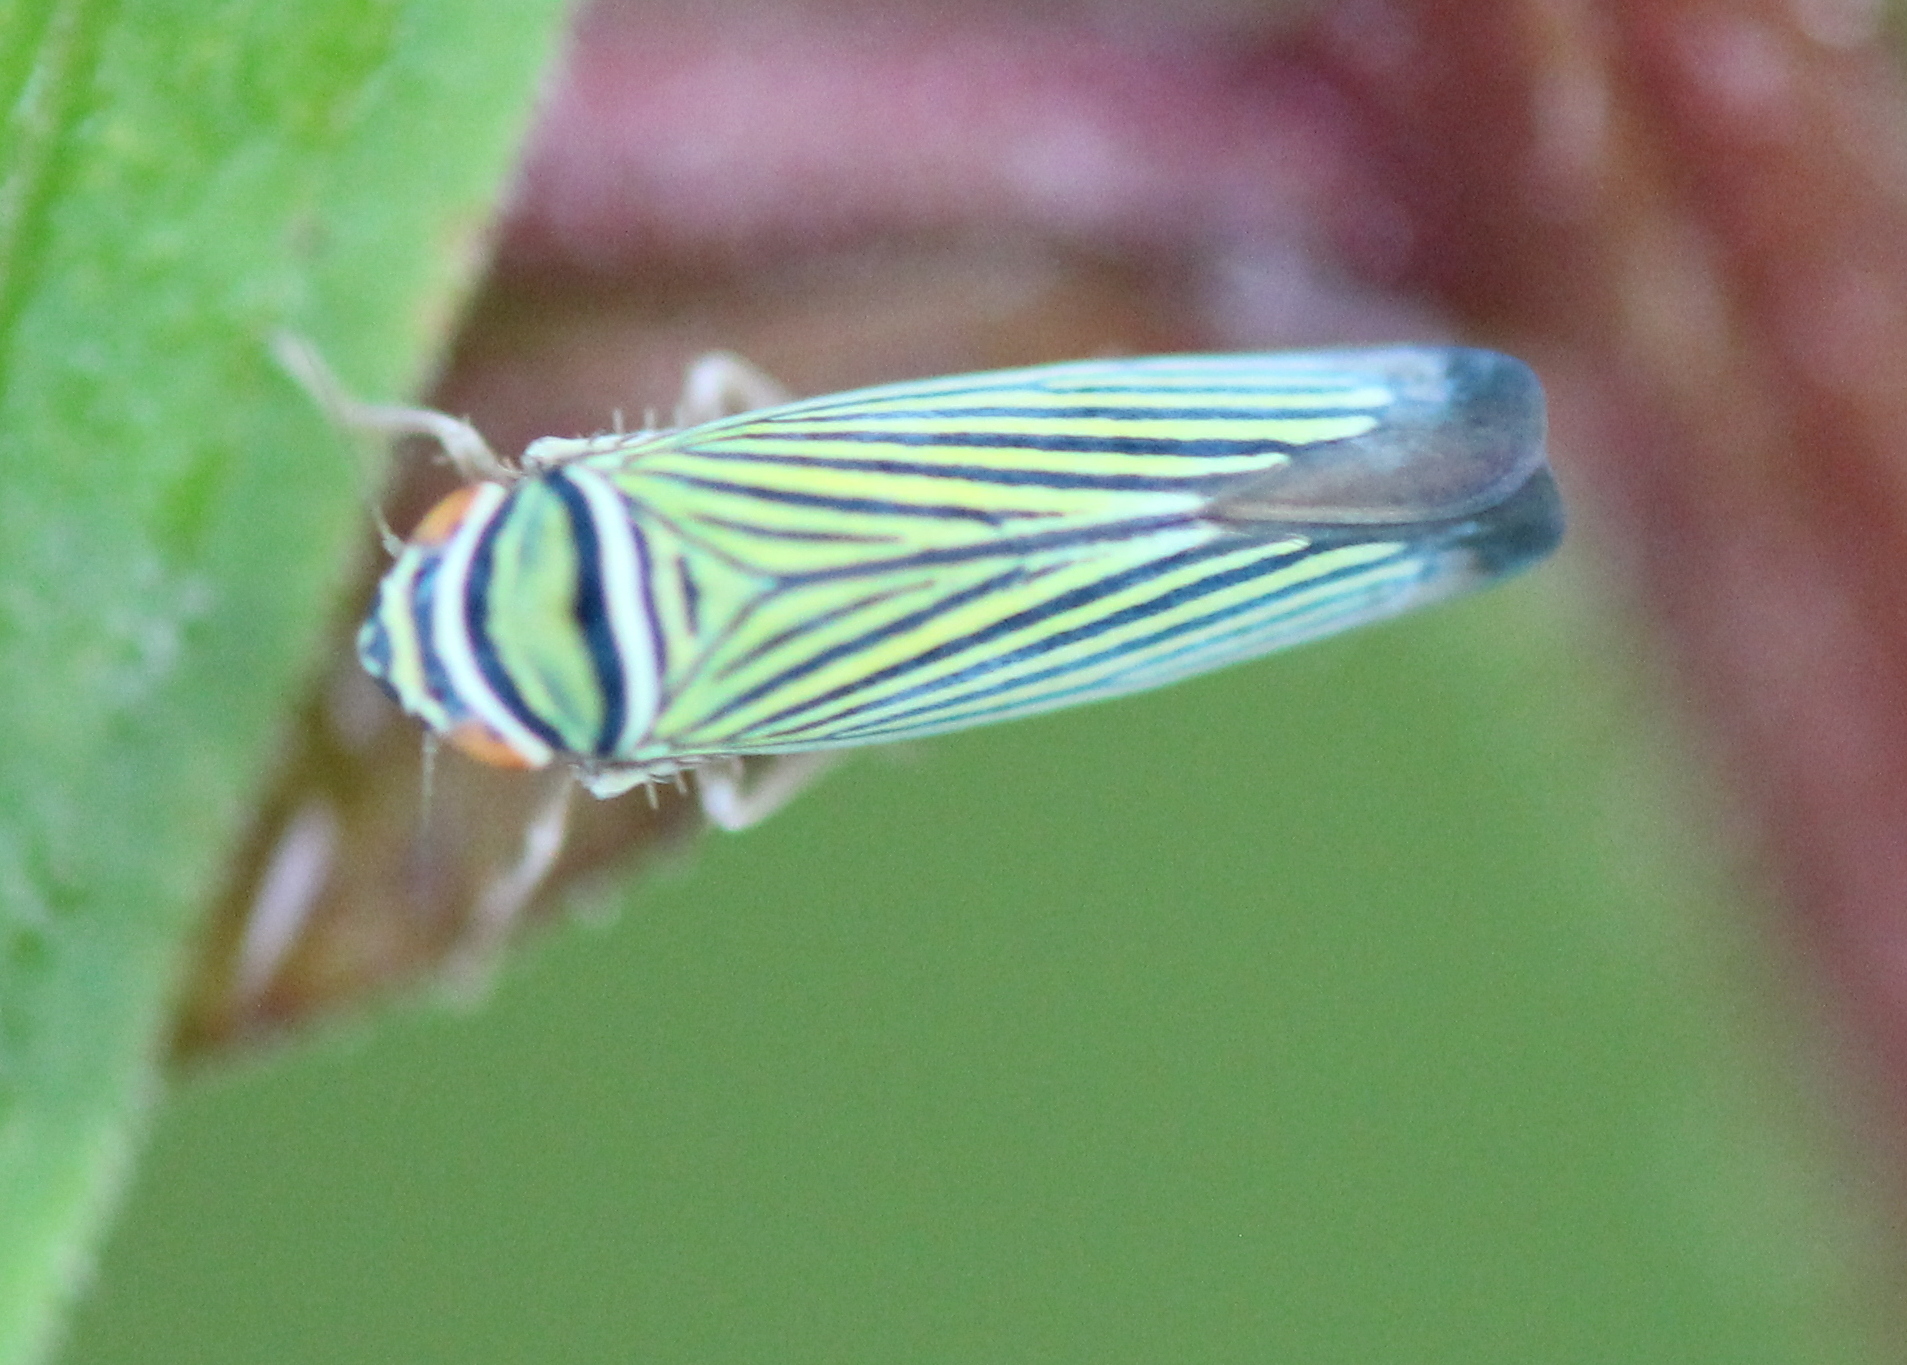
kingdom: Animalia
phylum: Arthropoda
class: Insecta
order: Hemiptera
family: Cicadellidae
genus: Tylozygus
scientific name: Tylozygus bifidus
